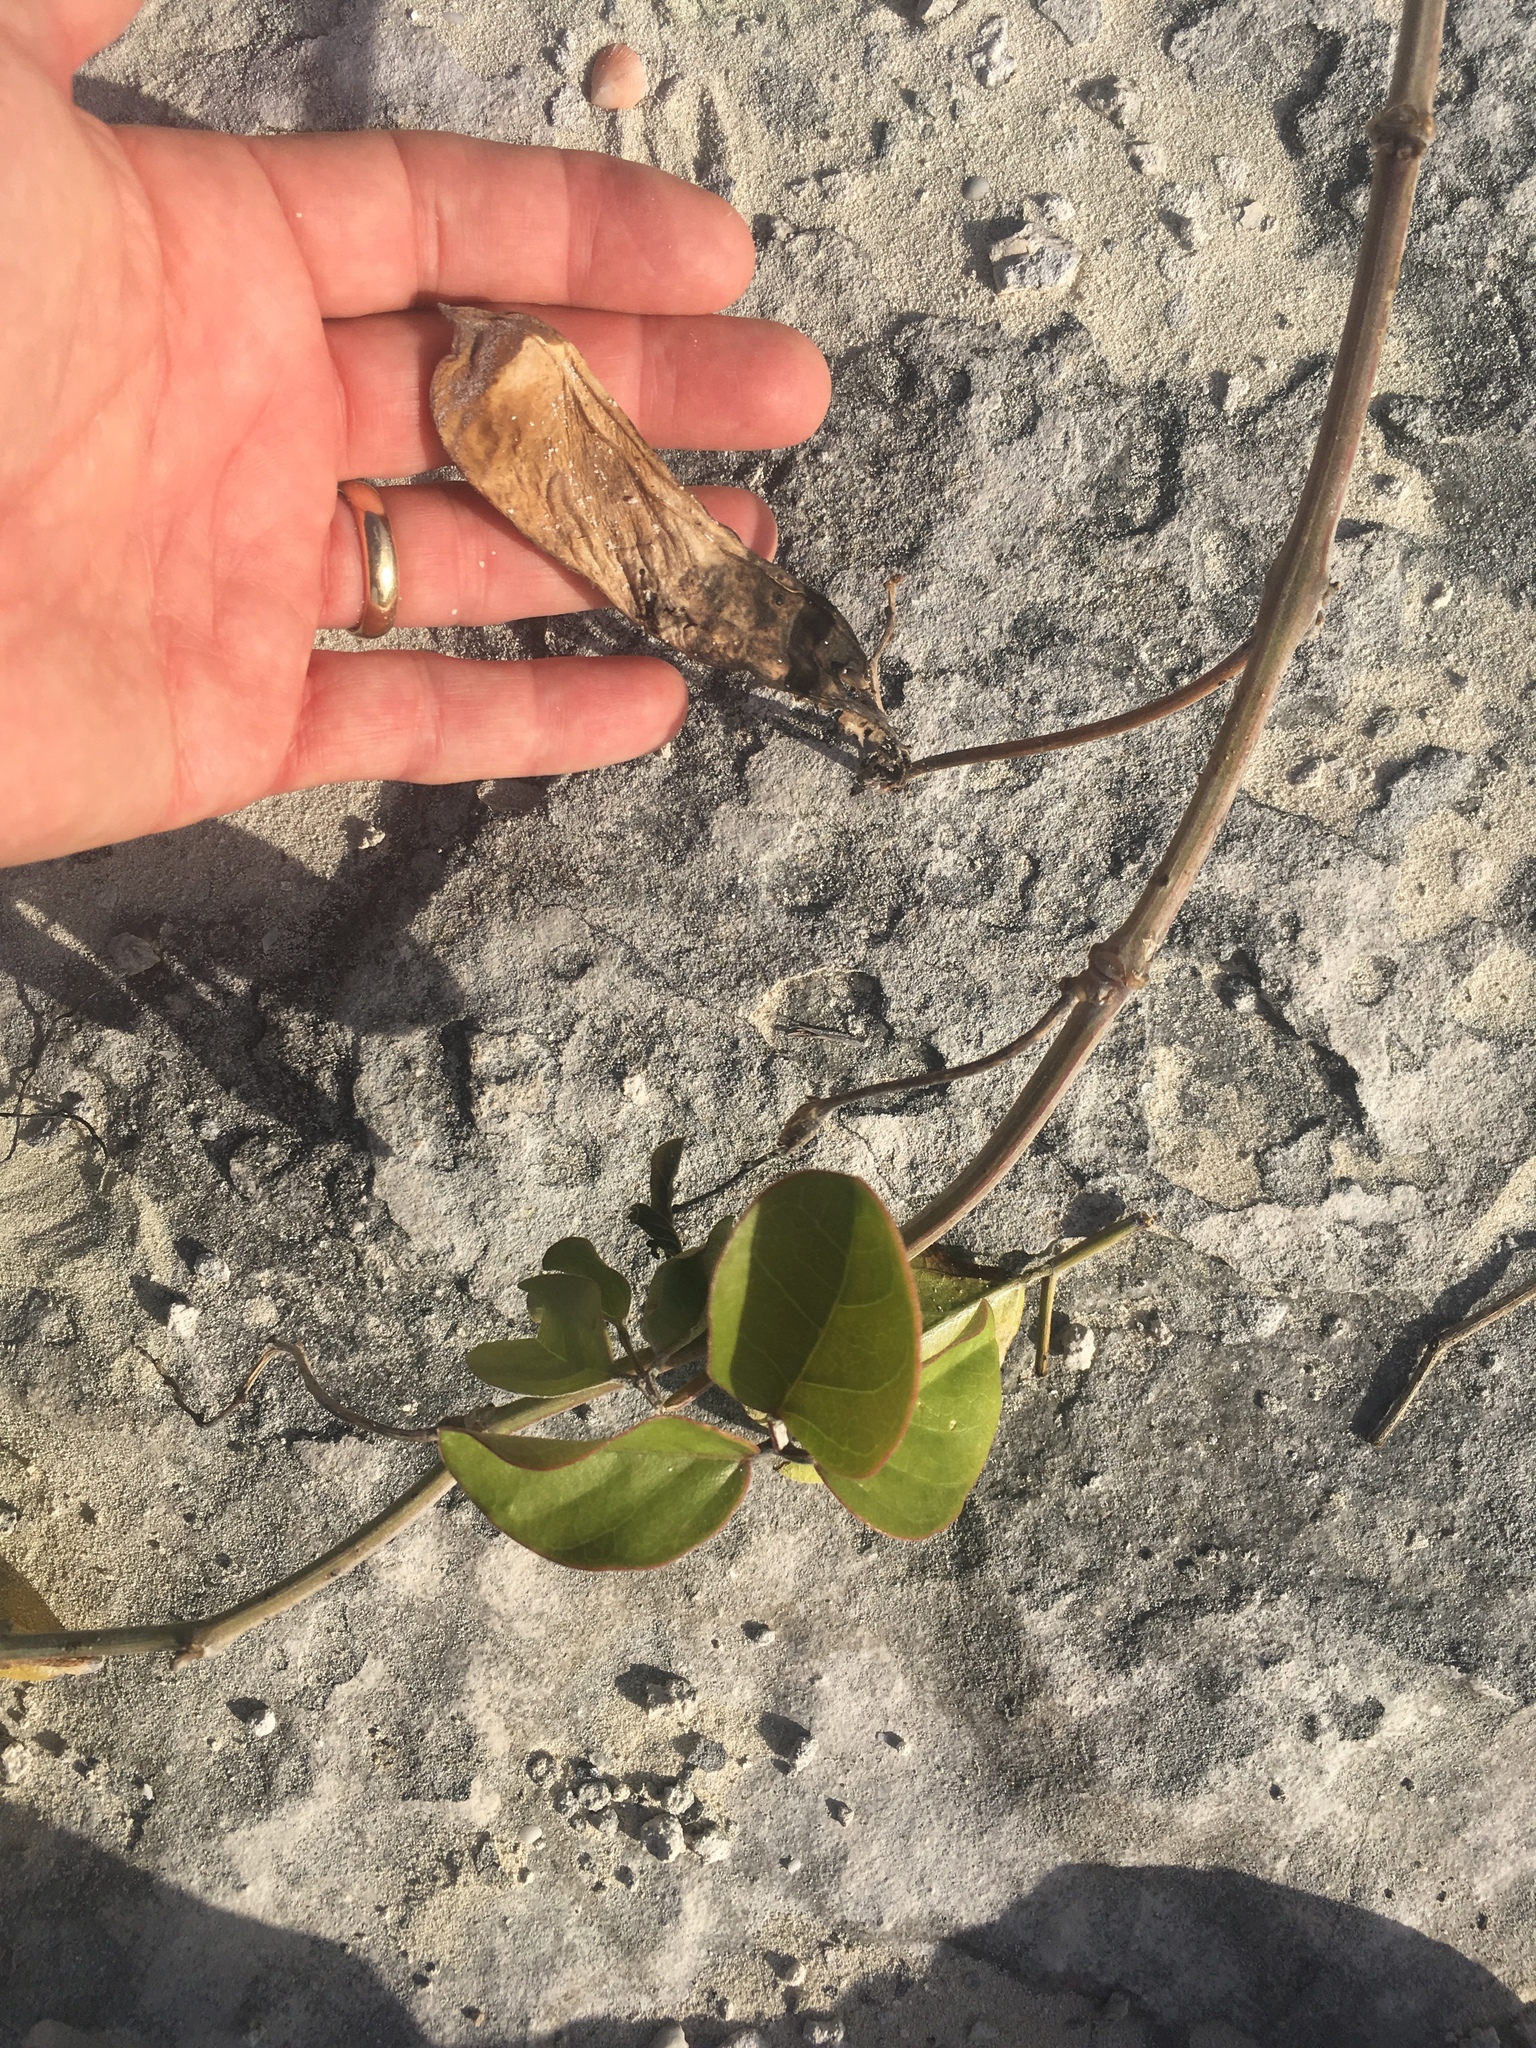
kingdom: Plantae
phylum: Tracheophyta
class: Magnoliopsida
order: Fabales
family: Fabaceae
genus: Canavalia
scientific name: Canavalia rosea
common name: Beach-bean
